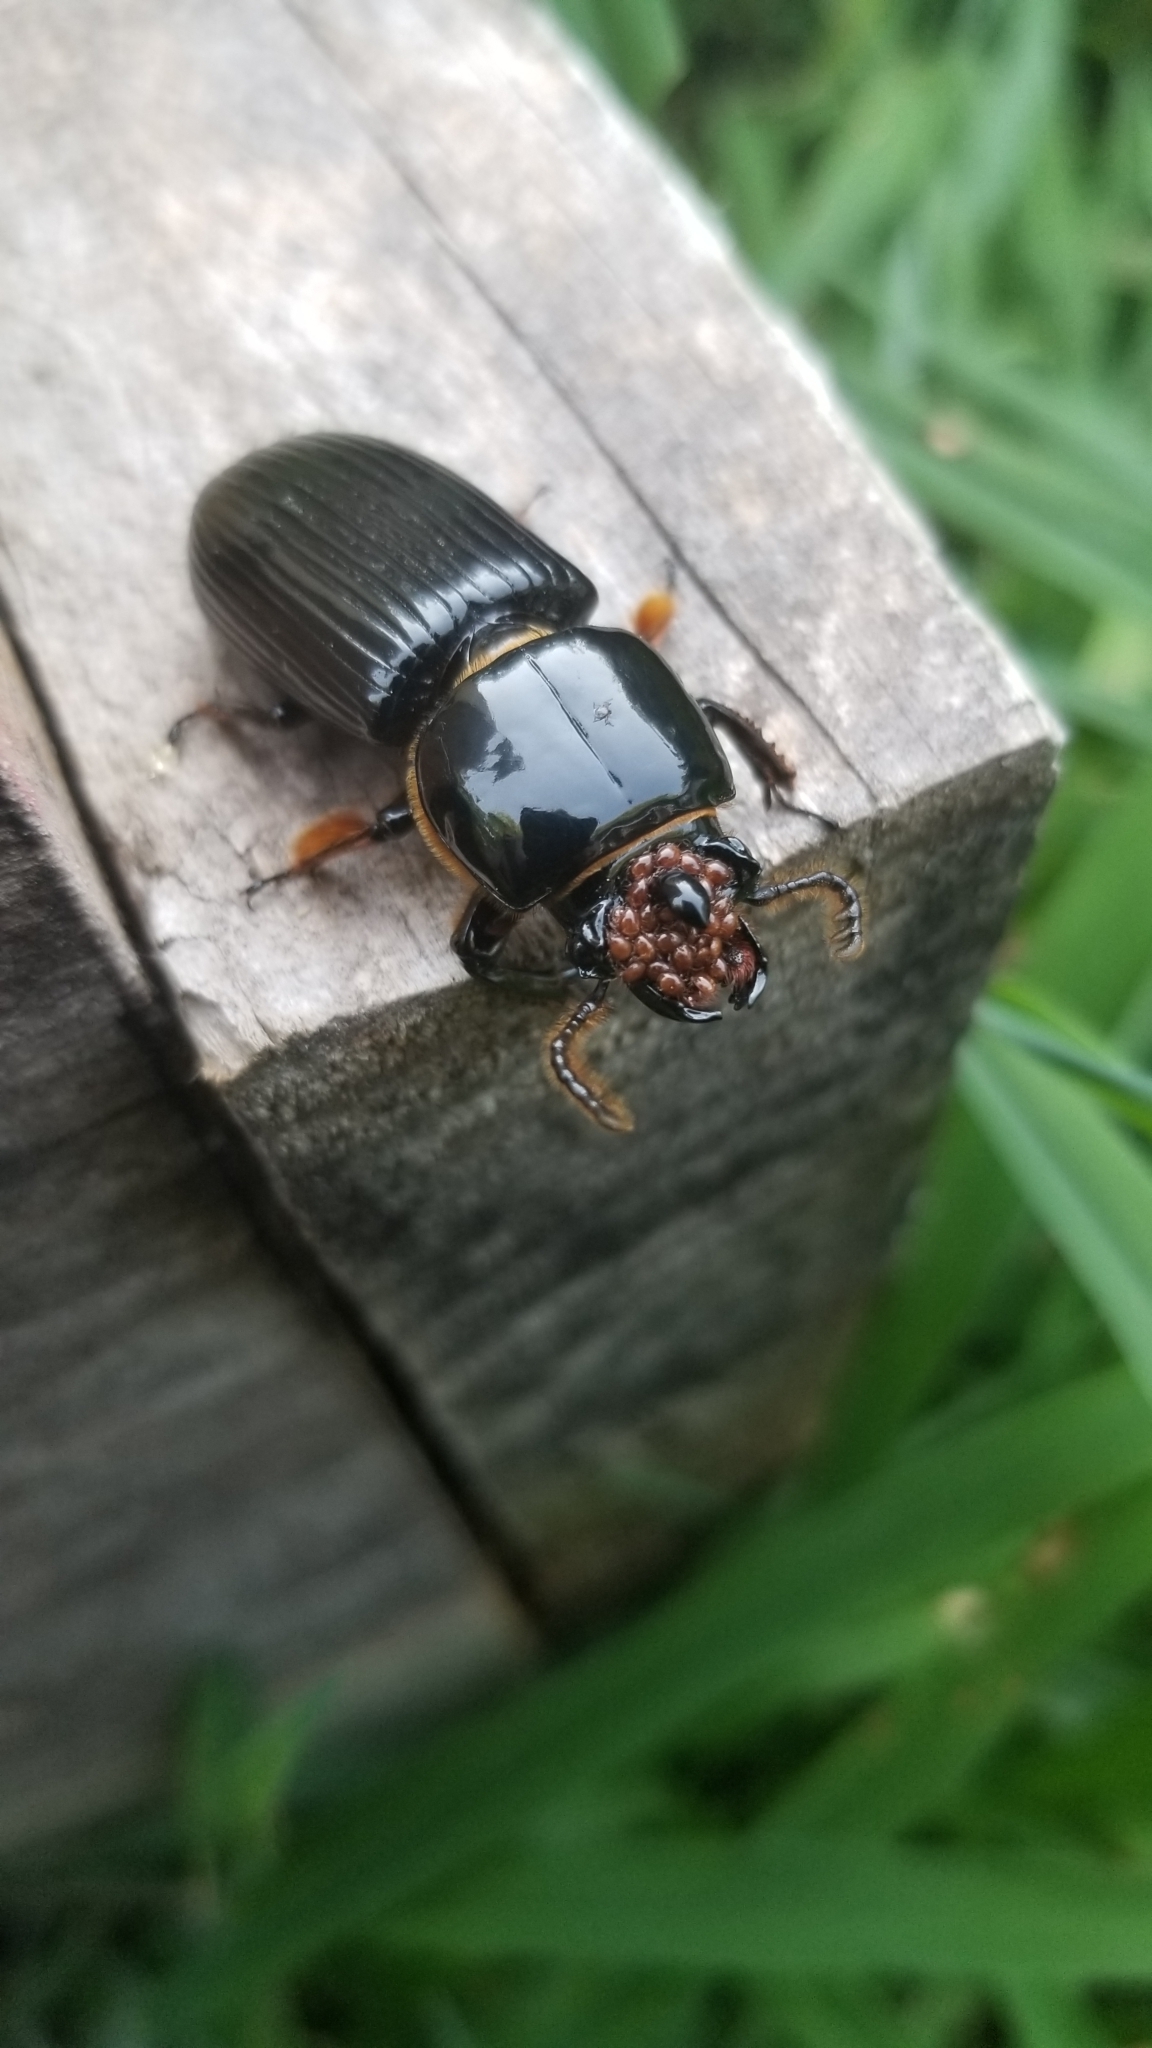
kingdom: Animalia
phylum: Arthropoda
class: Insecta
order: Coleoptera
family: Passalidae
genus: Odontotaenius
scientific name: Odontotaenius disjunctus
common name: Patent leather beetle
